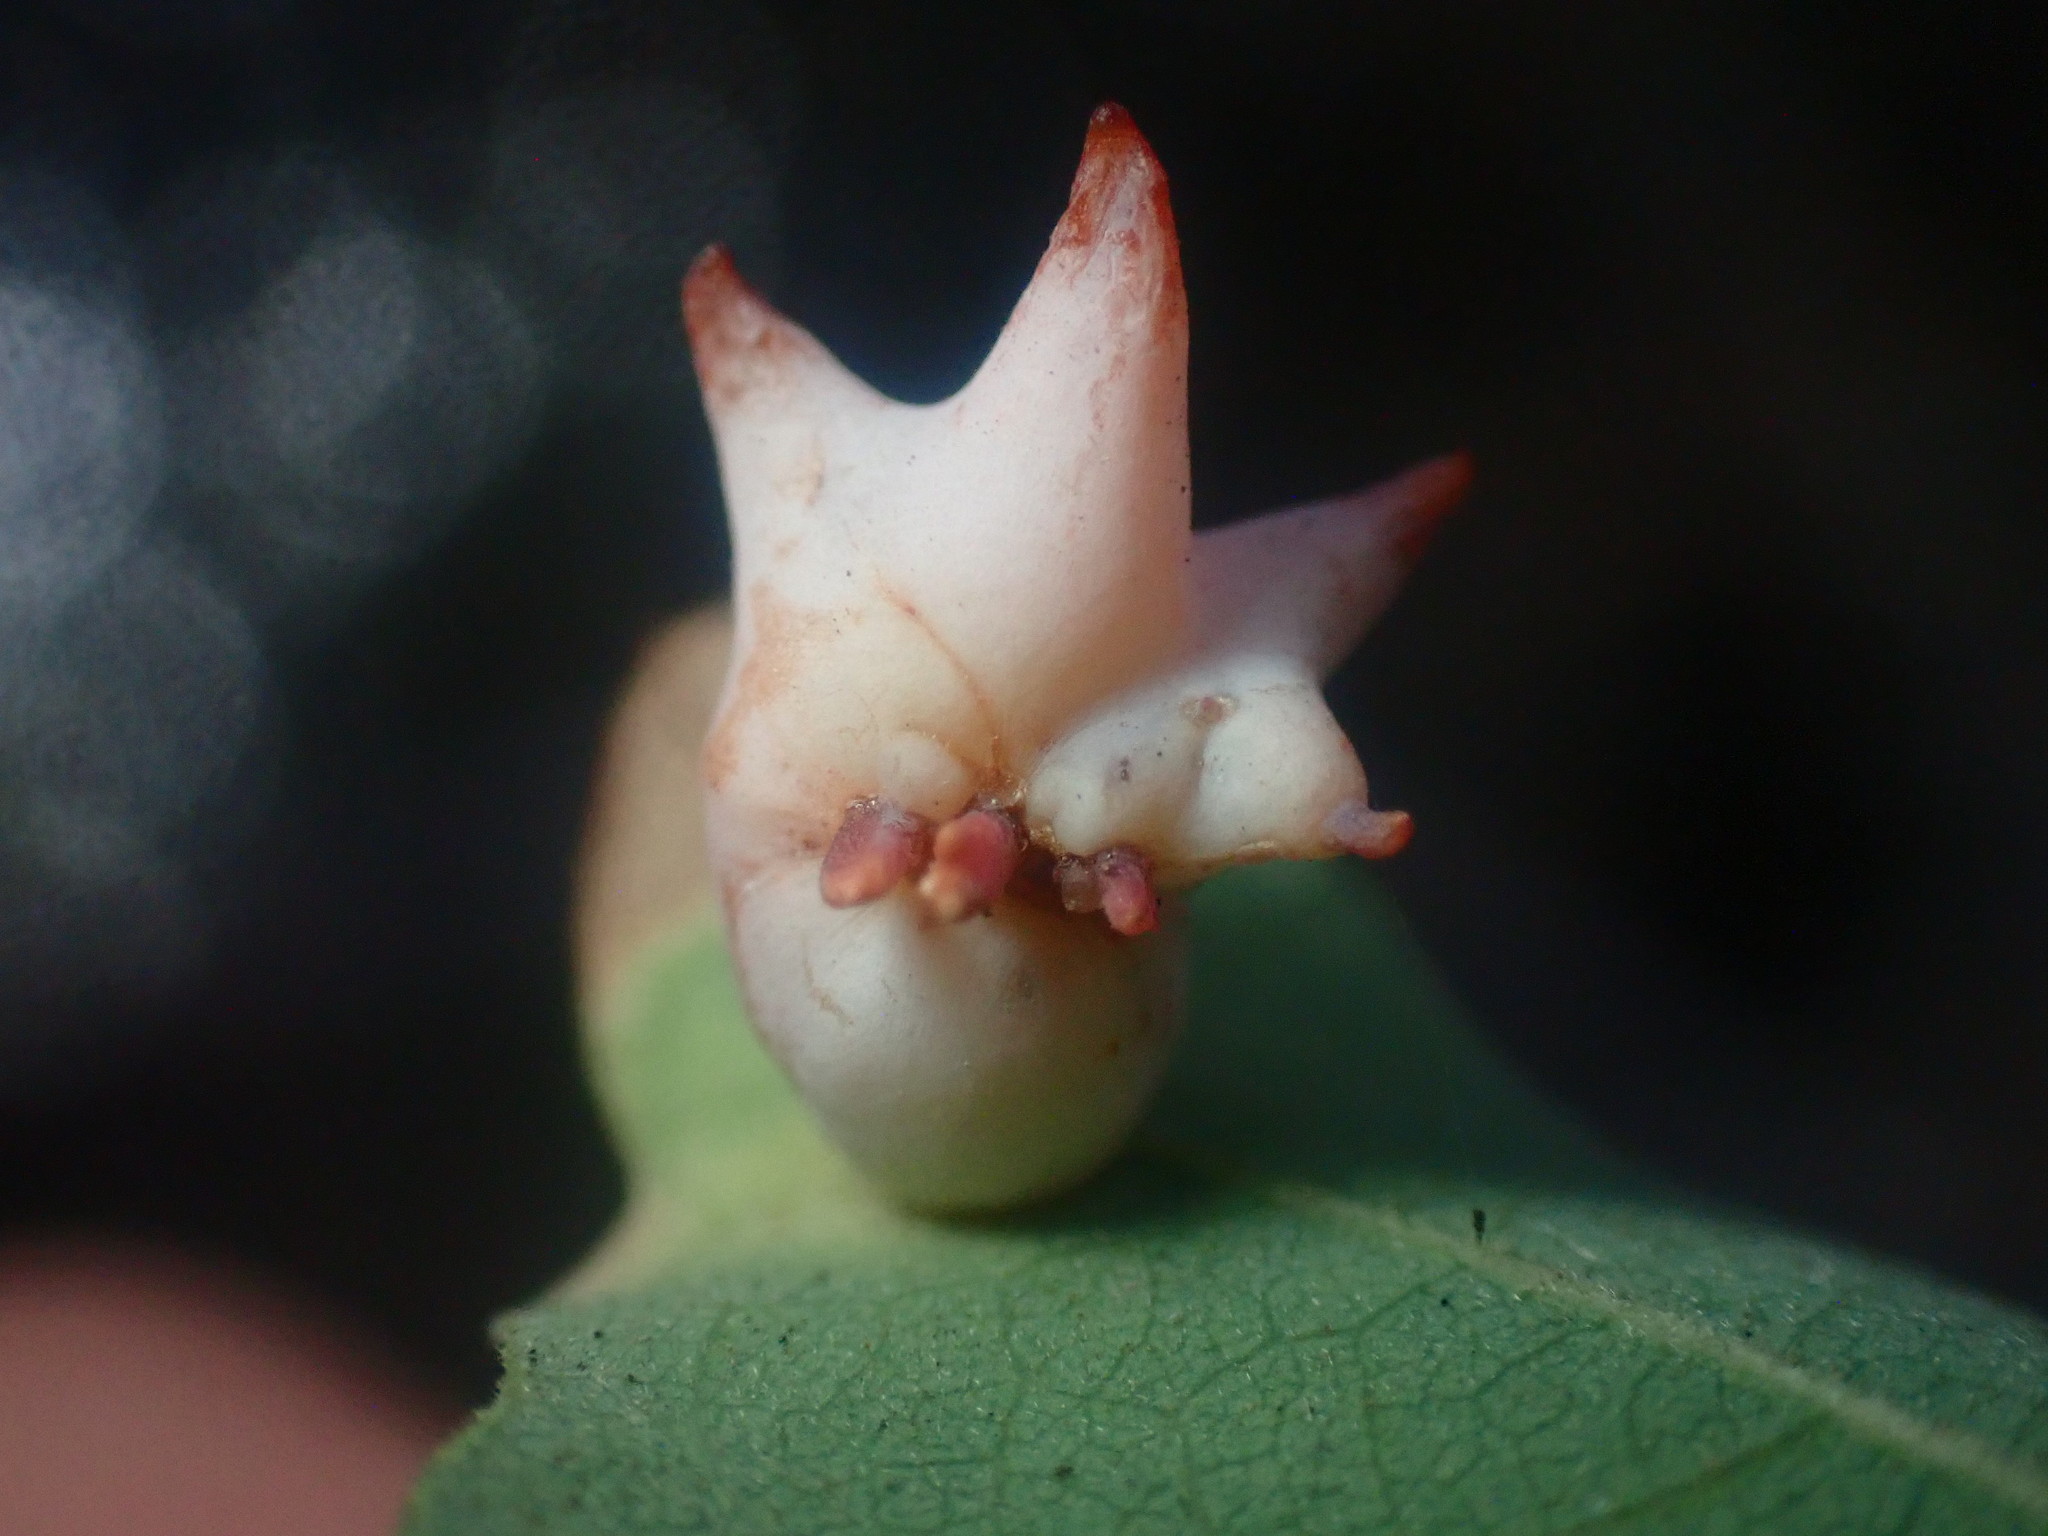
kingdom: Animalia
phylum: Arthropoda
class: Insecta
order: Hymenoptera
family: Cynipidae
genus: Cynips
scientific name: Cynips douglasi
